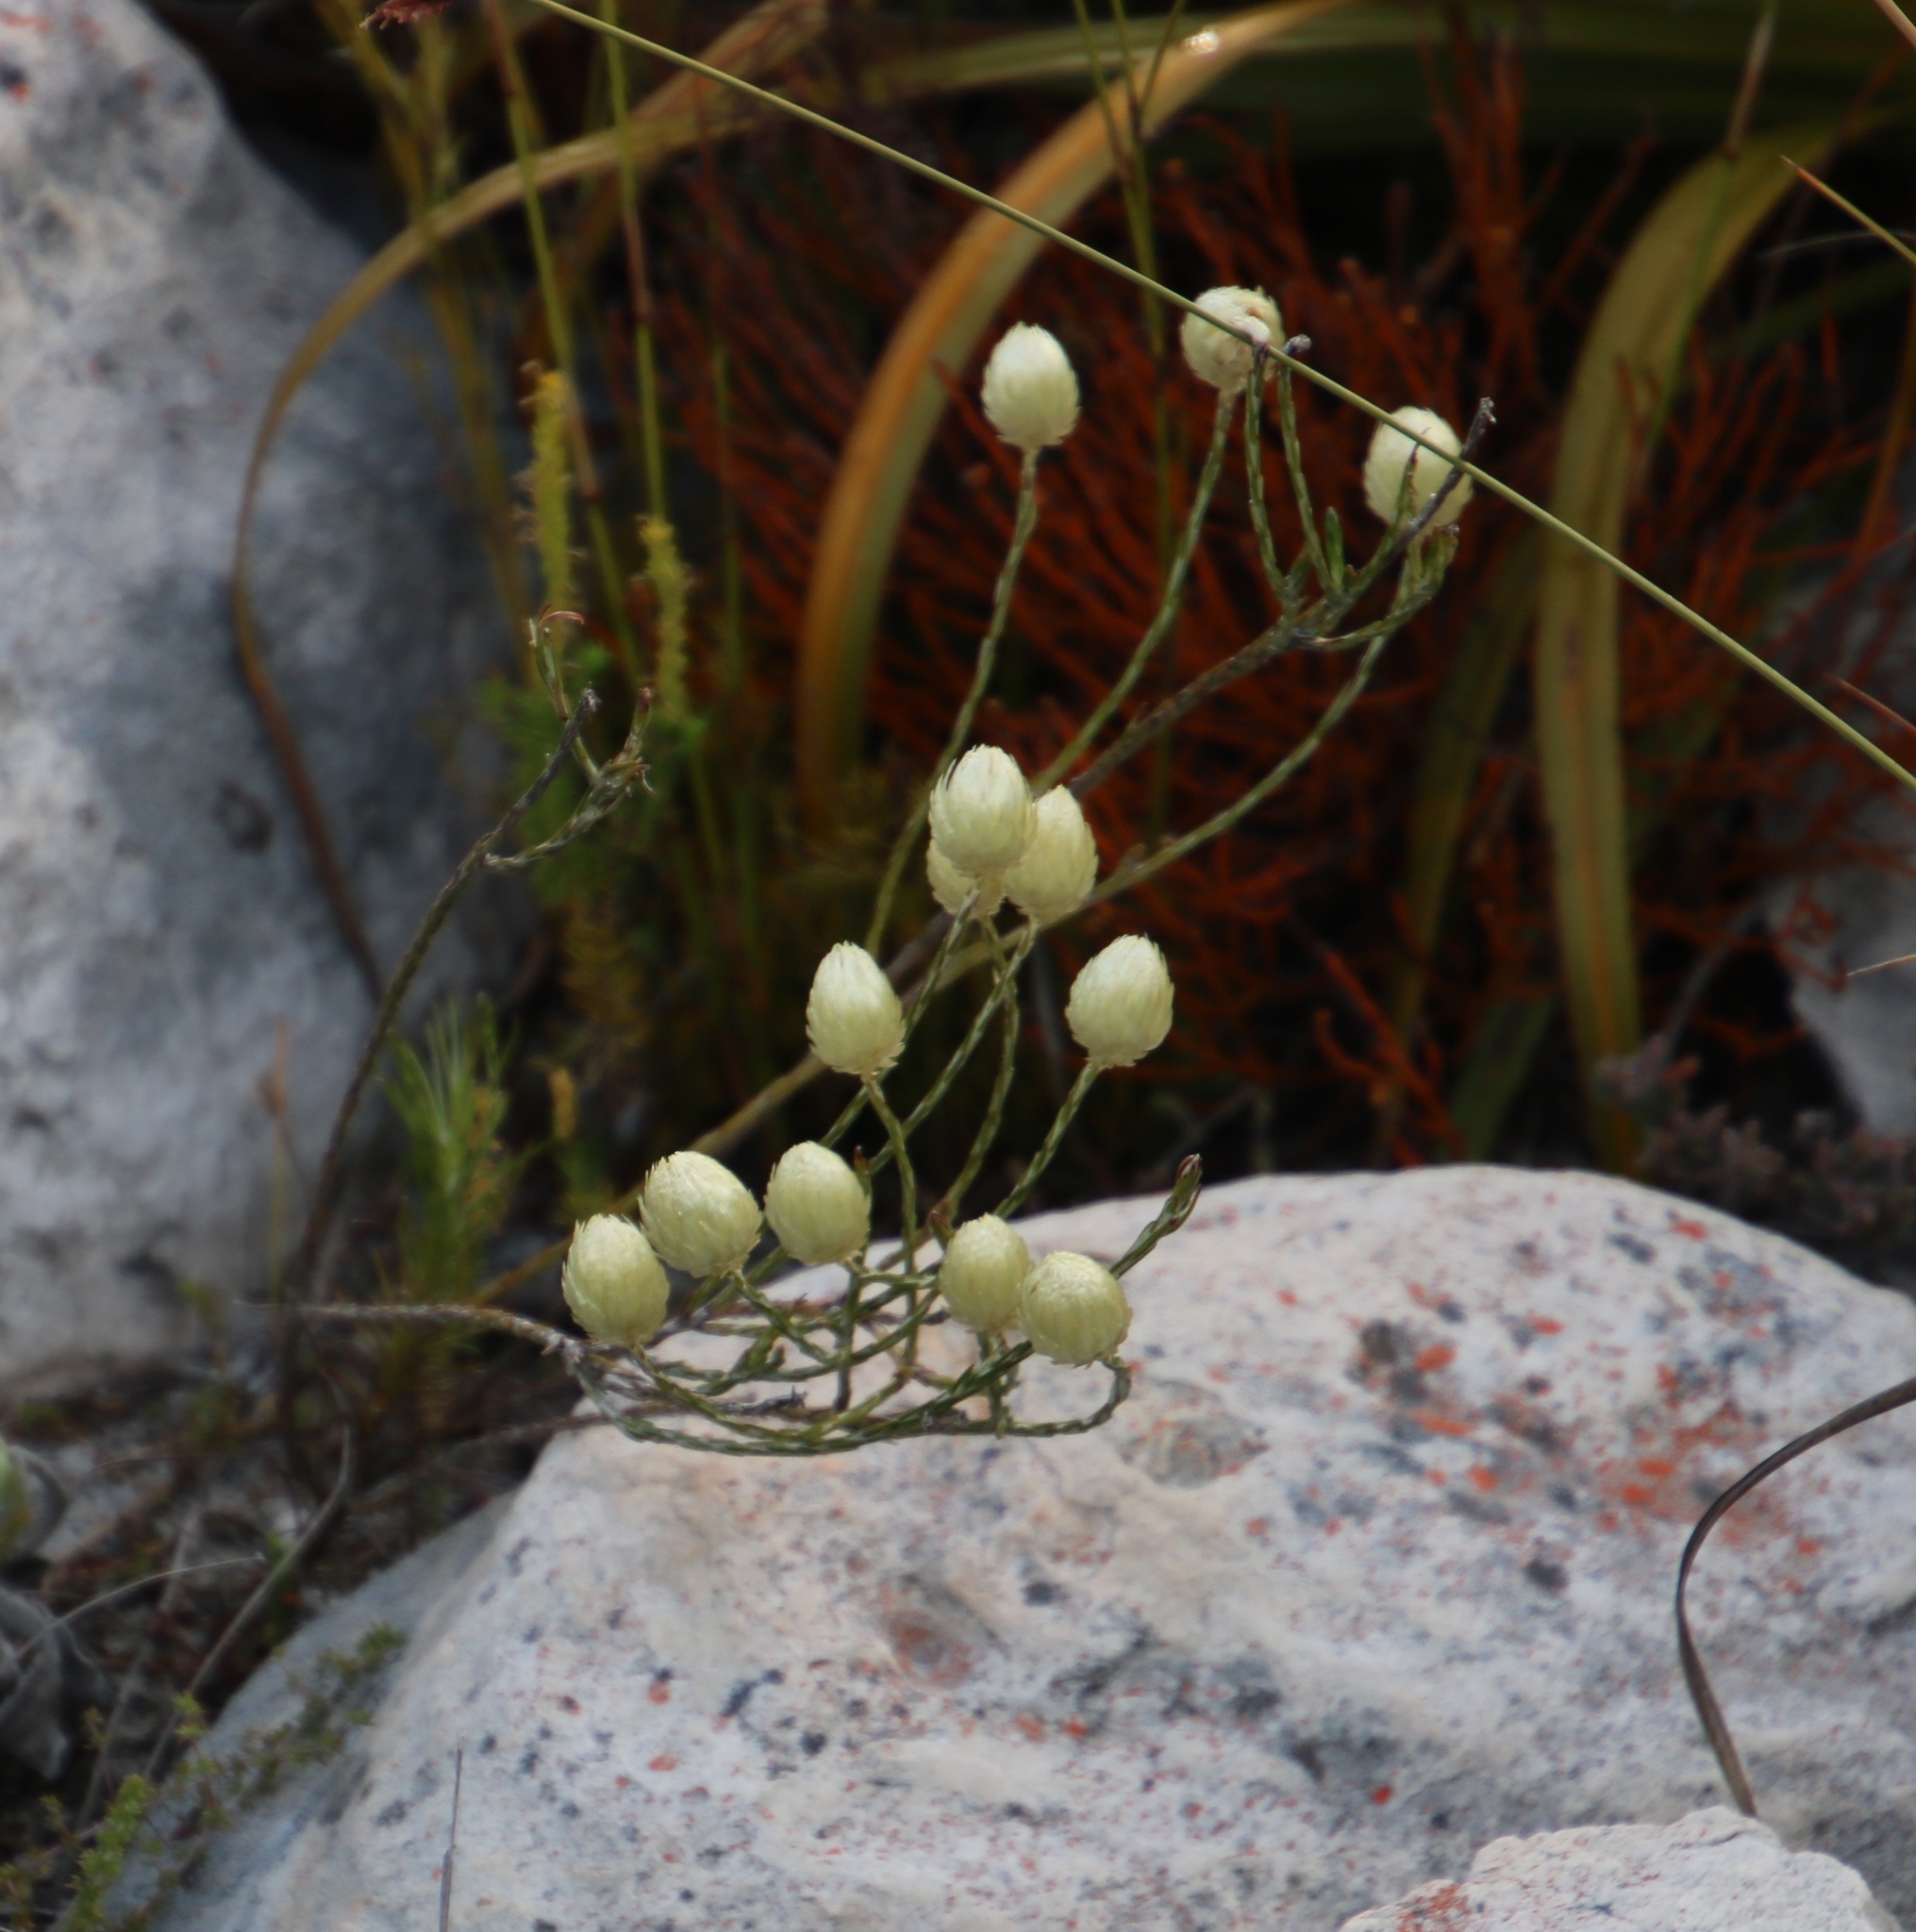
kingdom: Plantae
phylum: Tracheophyta
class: Magnoliopsida
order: Asterales
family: Asteraceae
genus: Edmondia
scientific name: Edmondia sesamoides
